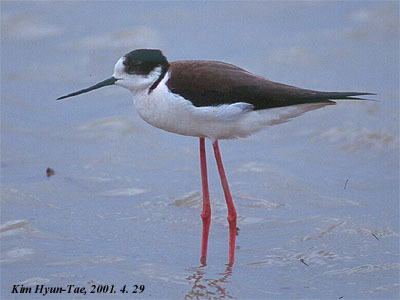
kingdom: Animalia
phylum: Chordata
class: Aves
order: Charadriiformes
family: Recurvirostridae
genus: Himantopus
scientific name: Himantopus himantopus
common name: Black-winged stilt
